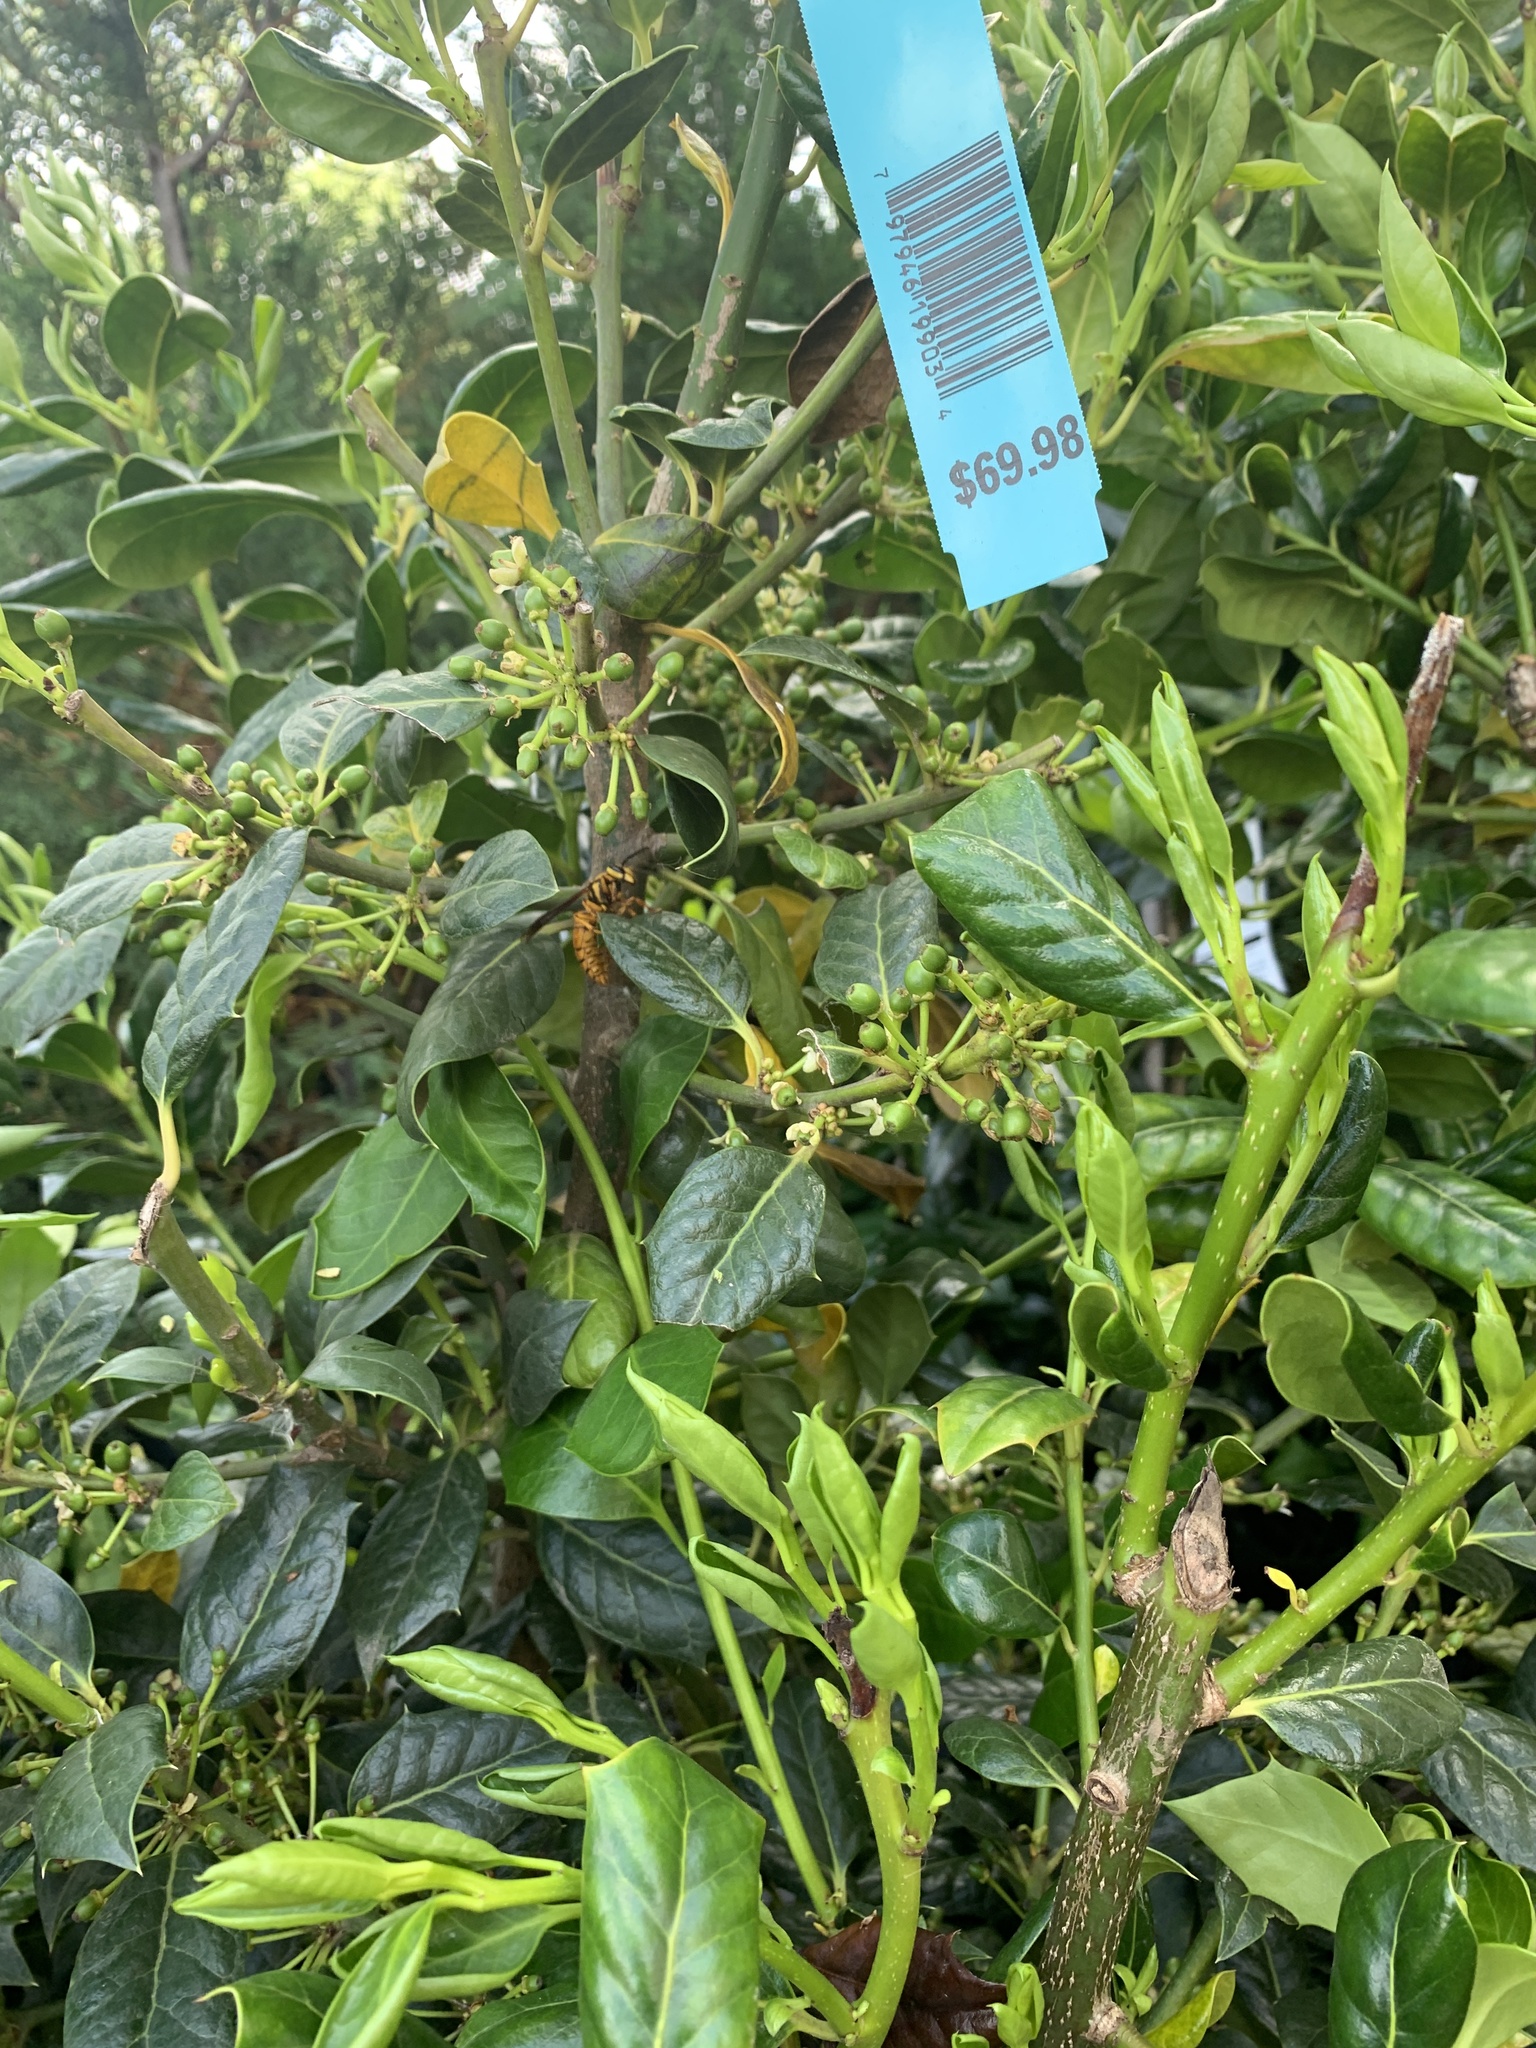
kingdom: Animalia
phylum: Arthropoda
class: Insecta
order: Hymenoptera
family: Vespidae
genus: Vespula
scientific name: Vespula squamosa
